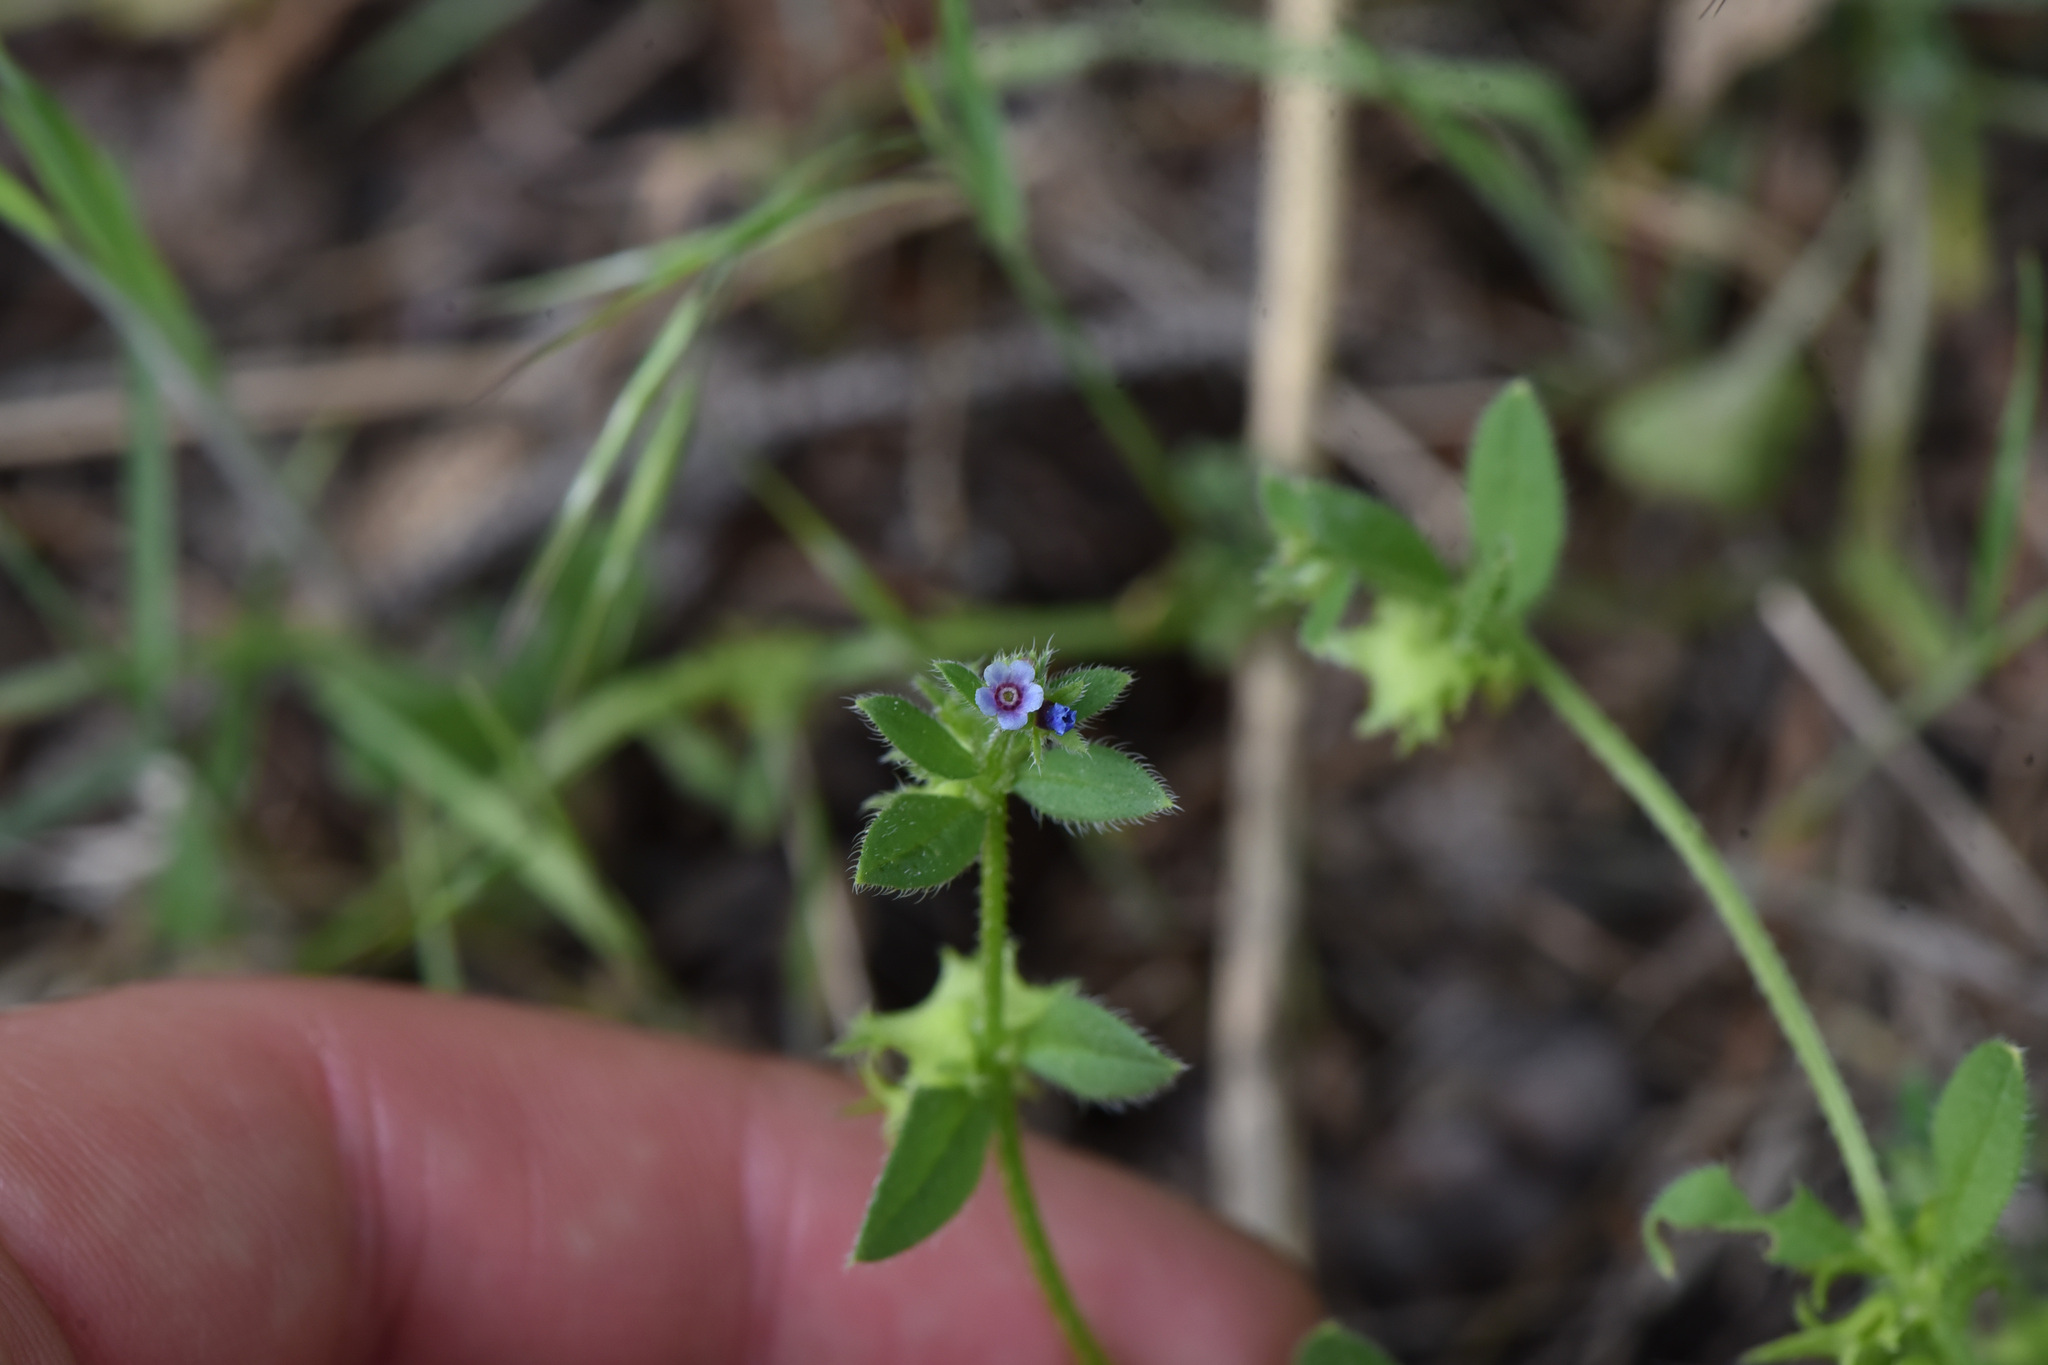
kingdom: Plantae
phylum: Tracheophyta
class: Magnoliopsida
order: Boraginales
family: Boraginaceae
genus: Asperugo
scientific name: Asperugo procumbens
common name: Madwort
